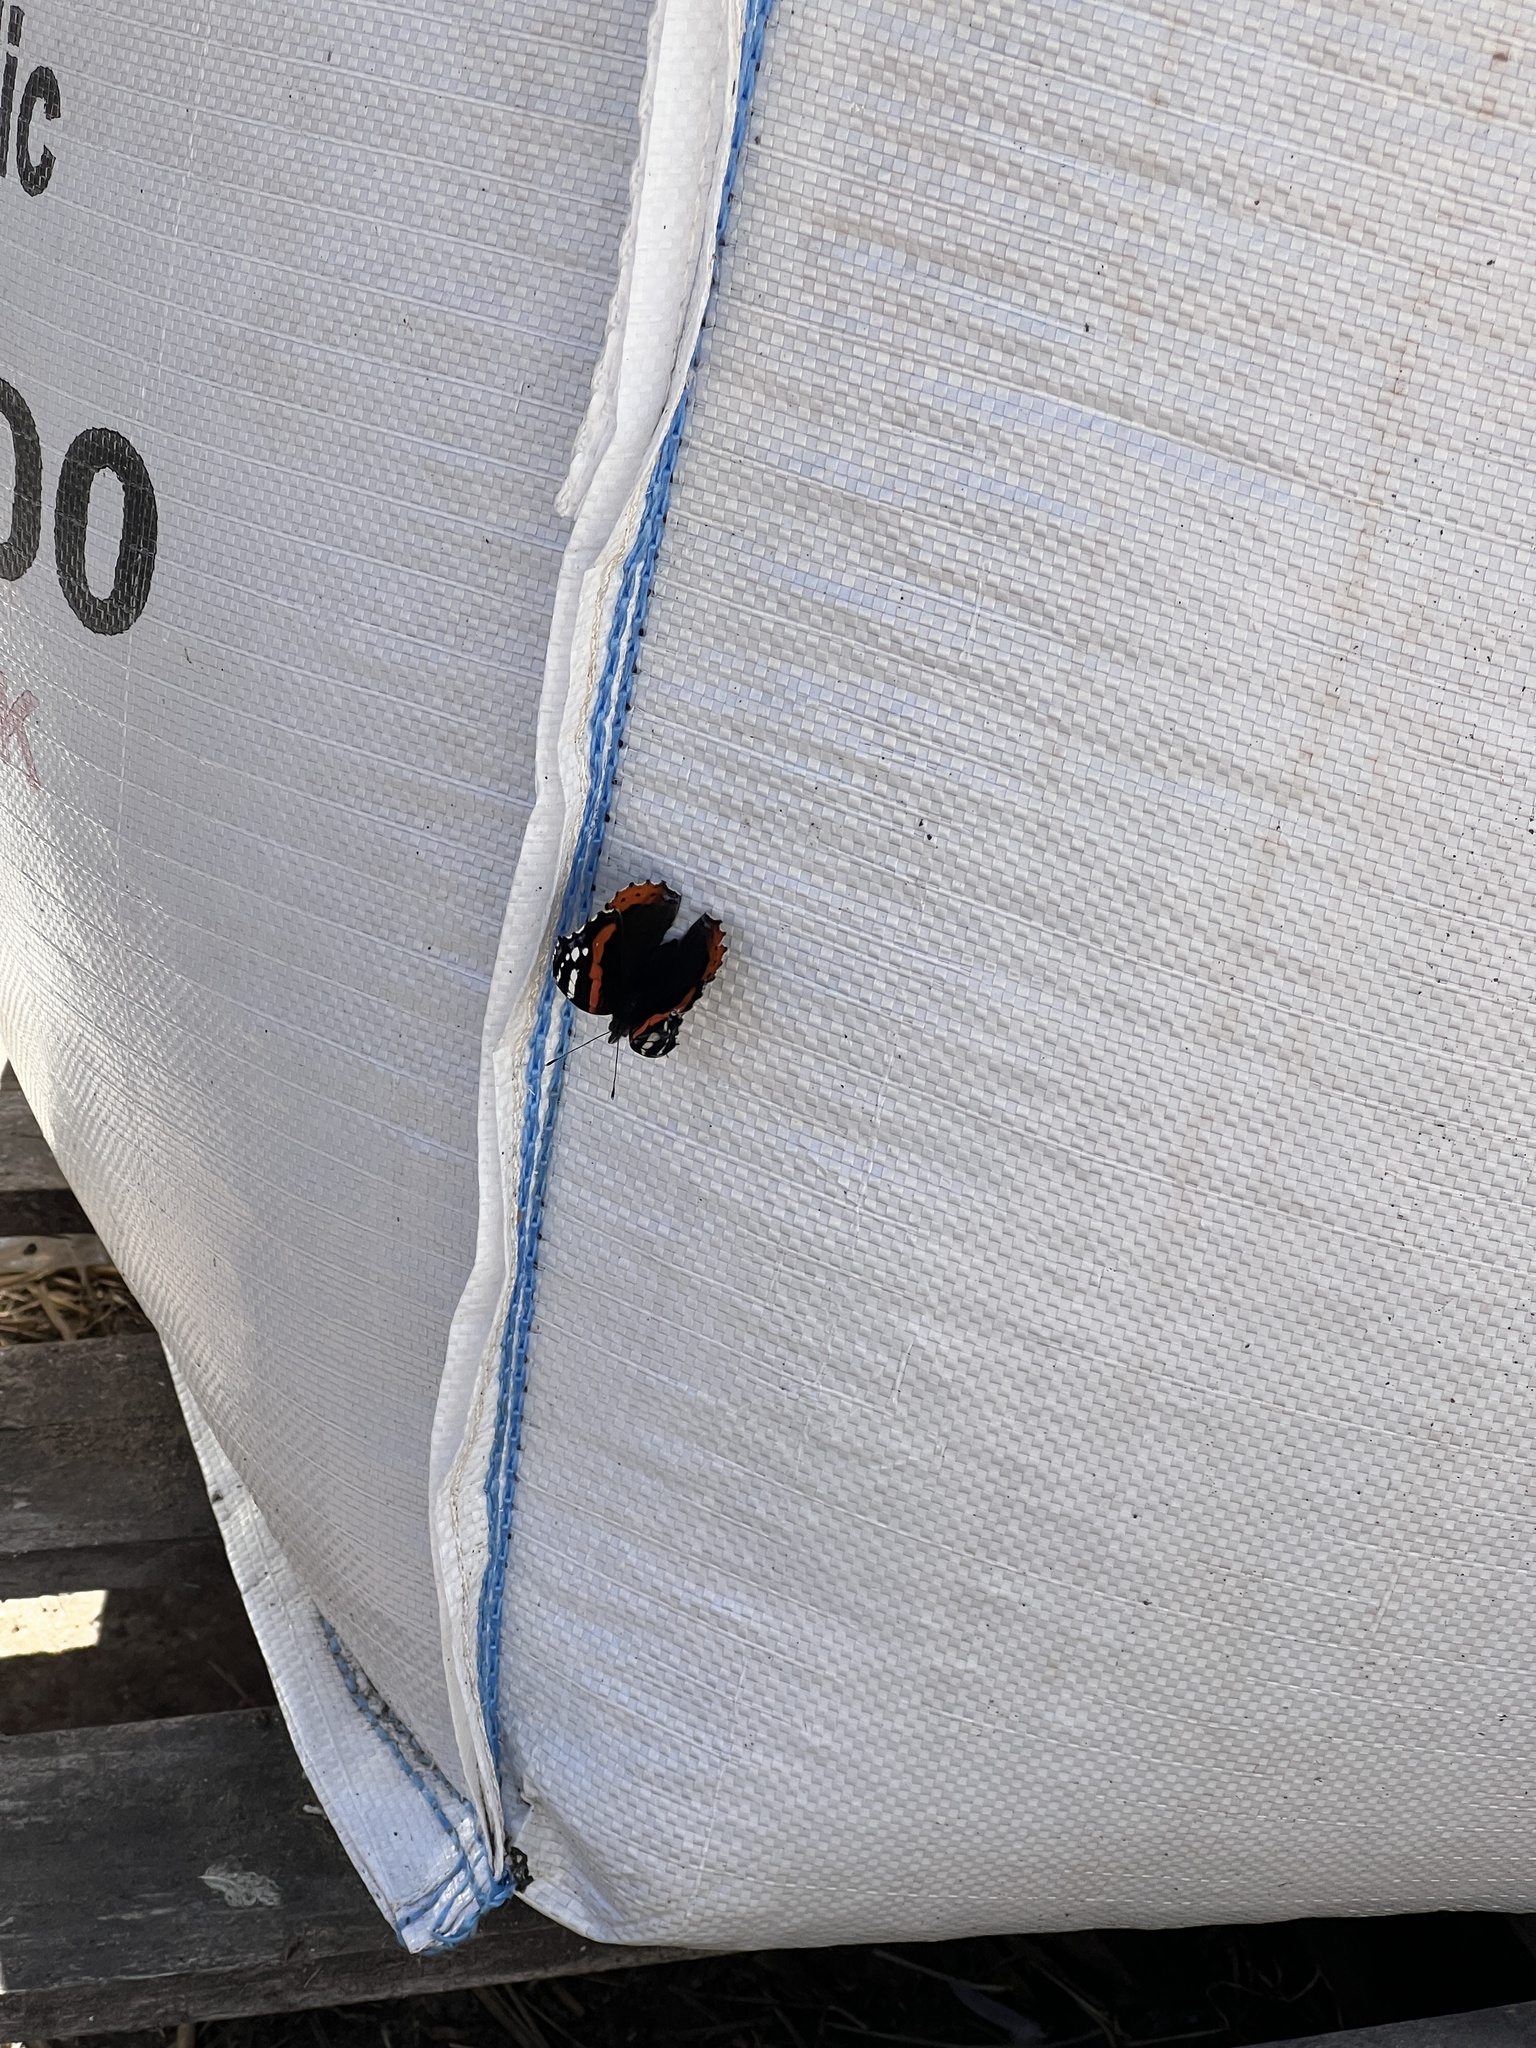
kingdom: Animalia
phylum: Arthropoda
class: Insecta
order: Lepidoptera
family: Nymphalidae
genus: Vanessa
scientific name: Vanessa atalanta
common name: Red admiral
